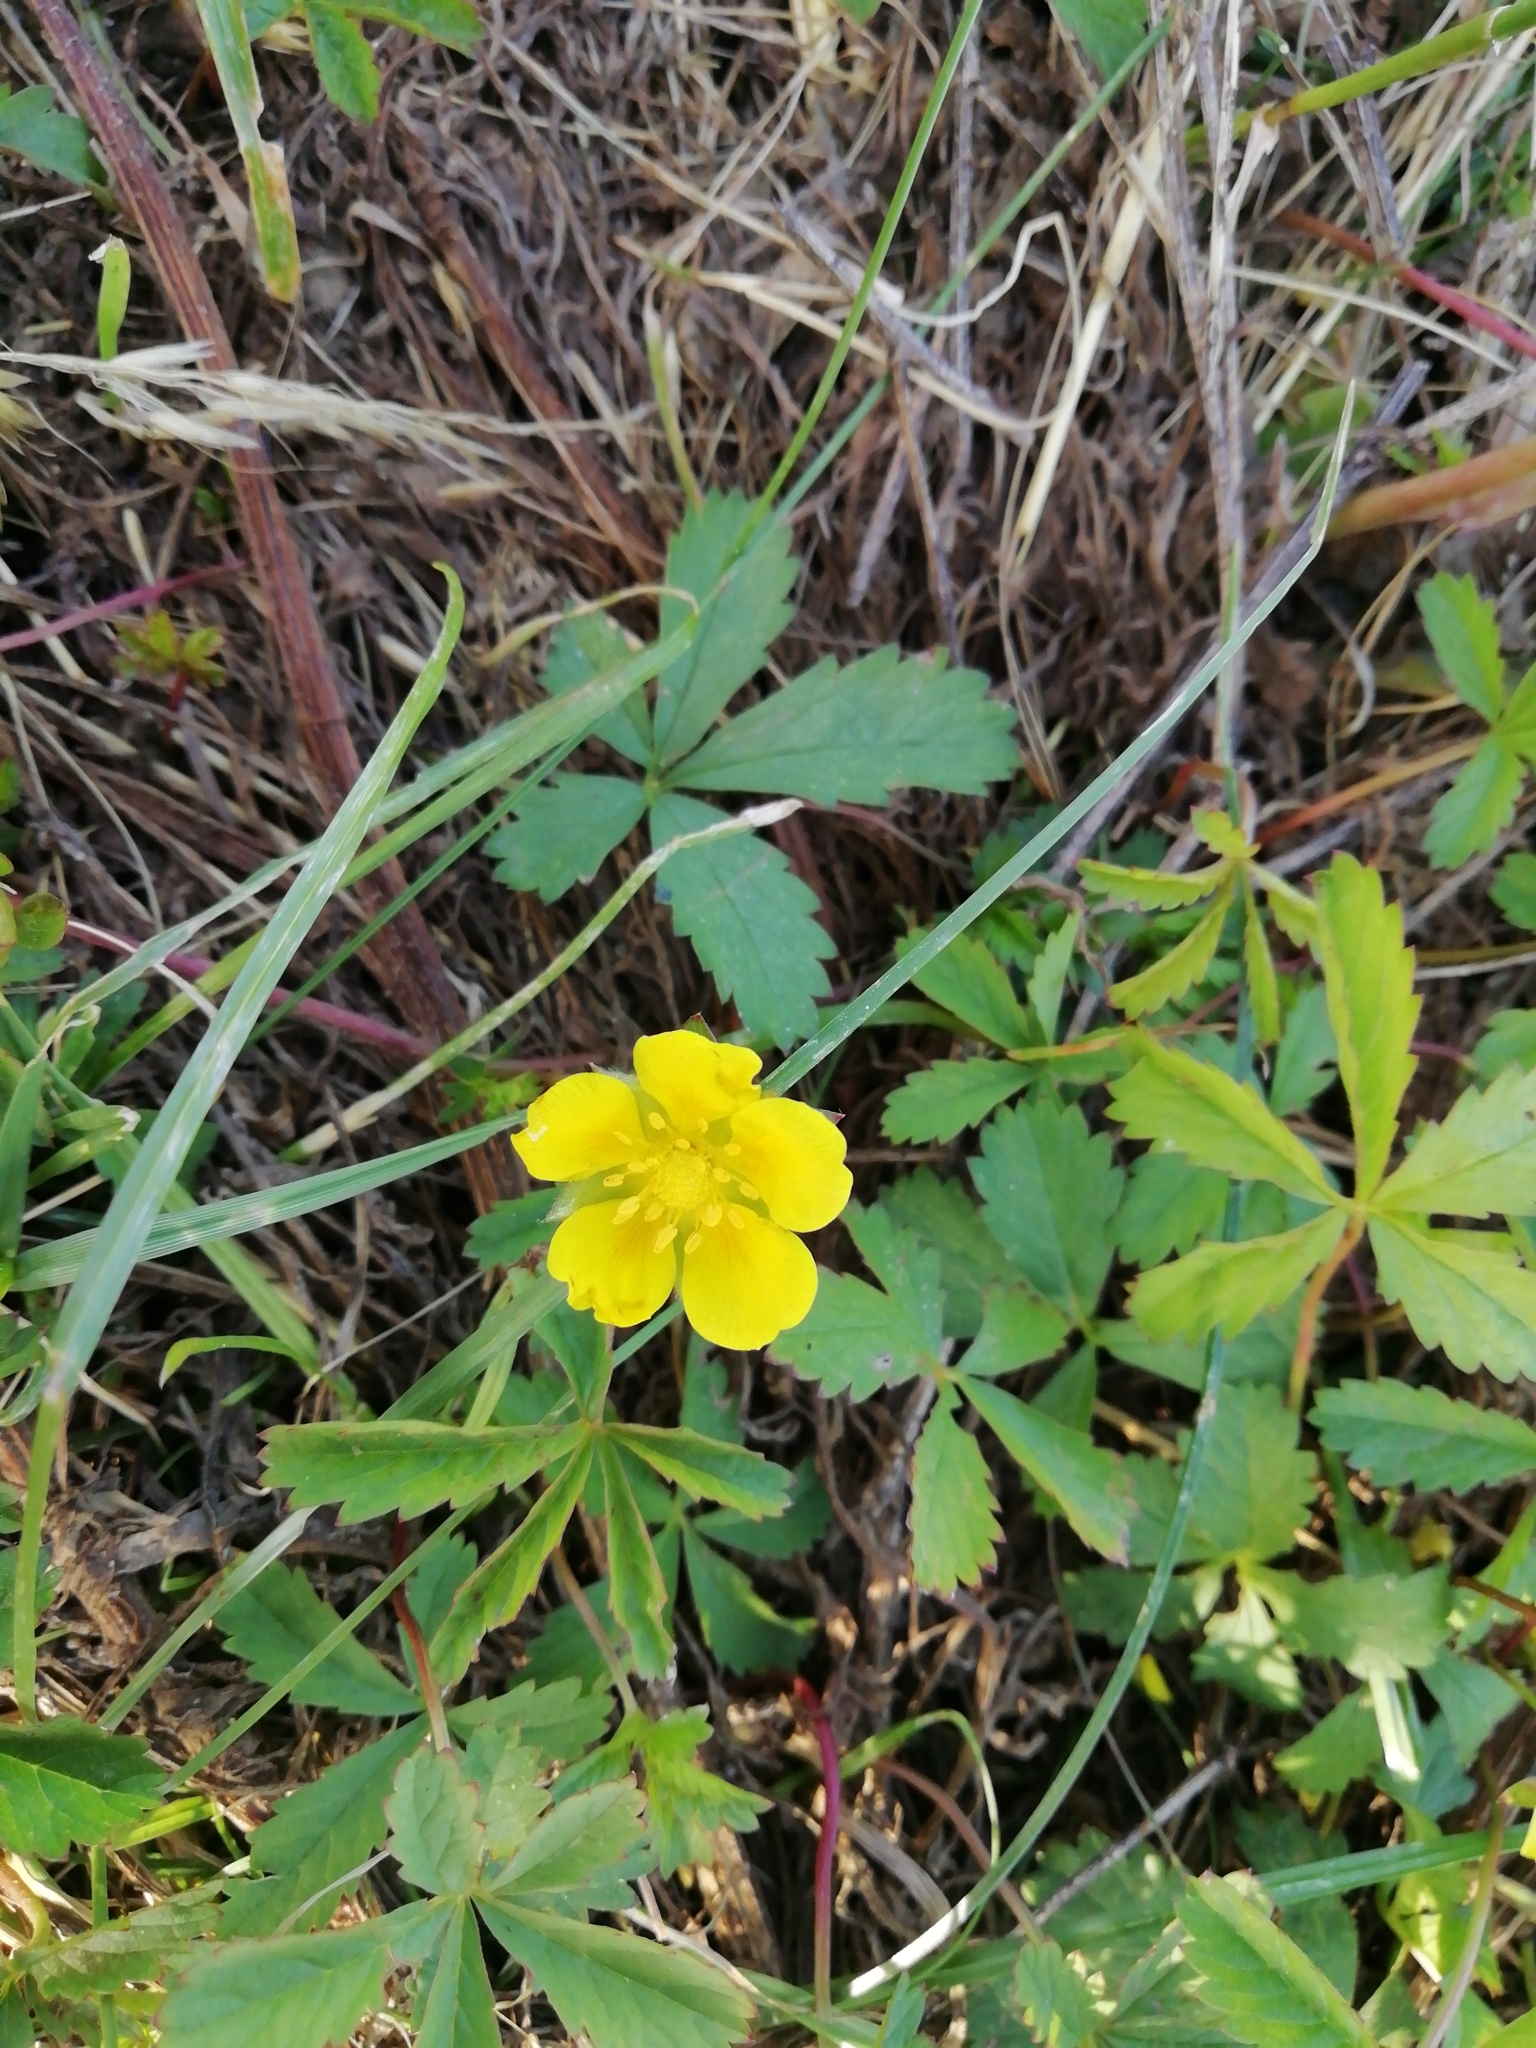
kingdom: Plantae
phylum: Tracheophyta
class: Magnoliopsida
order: Rosales
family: Rosaceae
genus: Potentilla
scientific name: Potentilla reptans
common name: Creeping cinquefoil
